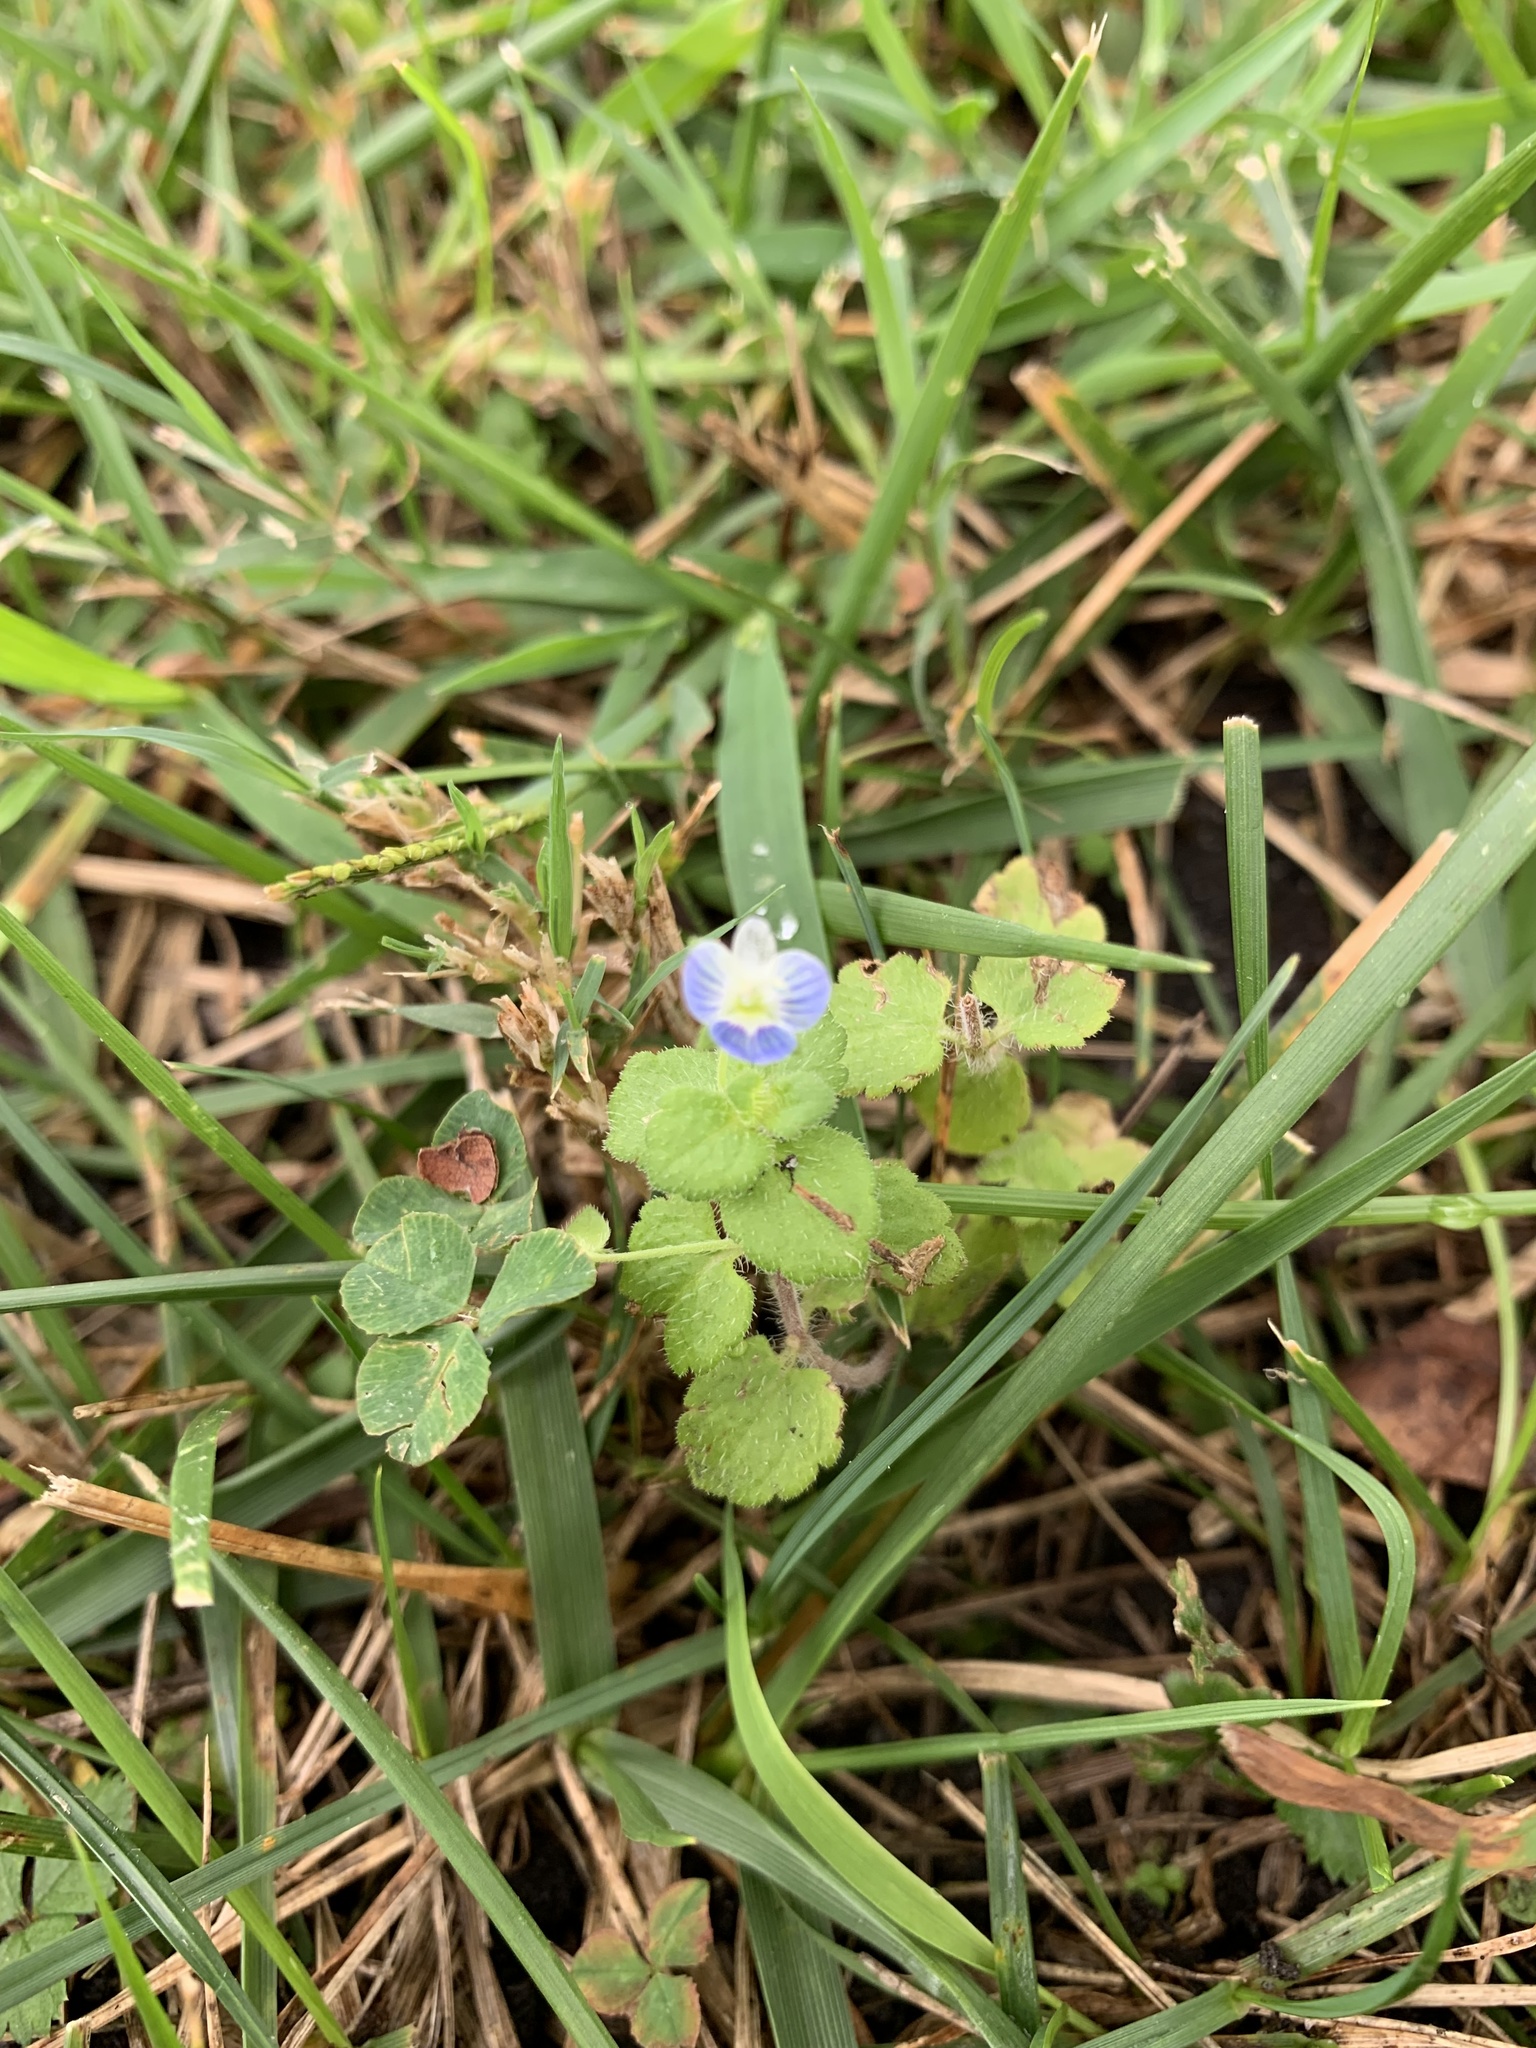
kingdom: Plantae
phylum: Tracheophyta
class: Magnoliopsida
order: Lamiales
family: Plantaginaceae
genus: Veronica
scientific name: Veronica persica
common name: Common field-speedwell
